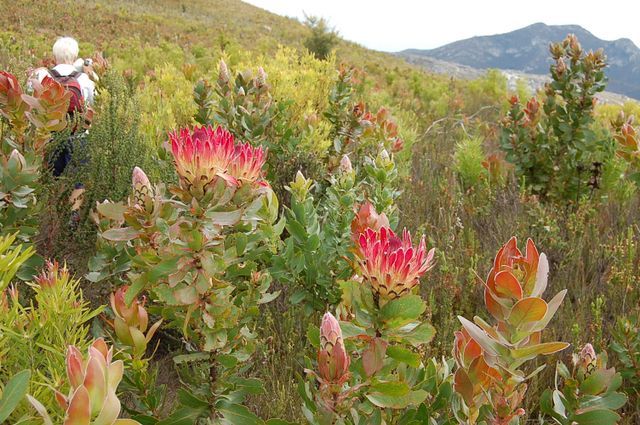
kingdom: Plantae
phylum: Tracheophyta
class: Magnoliopsida
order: Proteales
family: Proteaceae
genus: Protea
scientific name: Protea eximia
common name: Broad-leaved sugarbush
